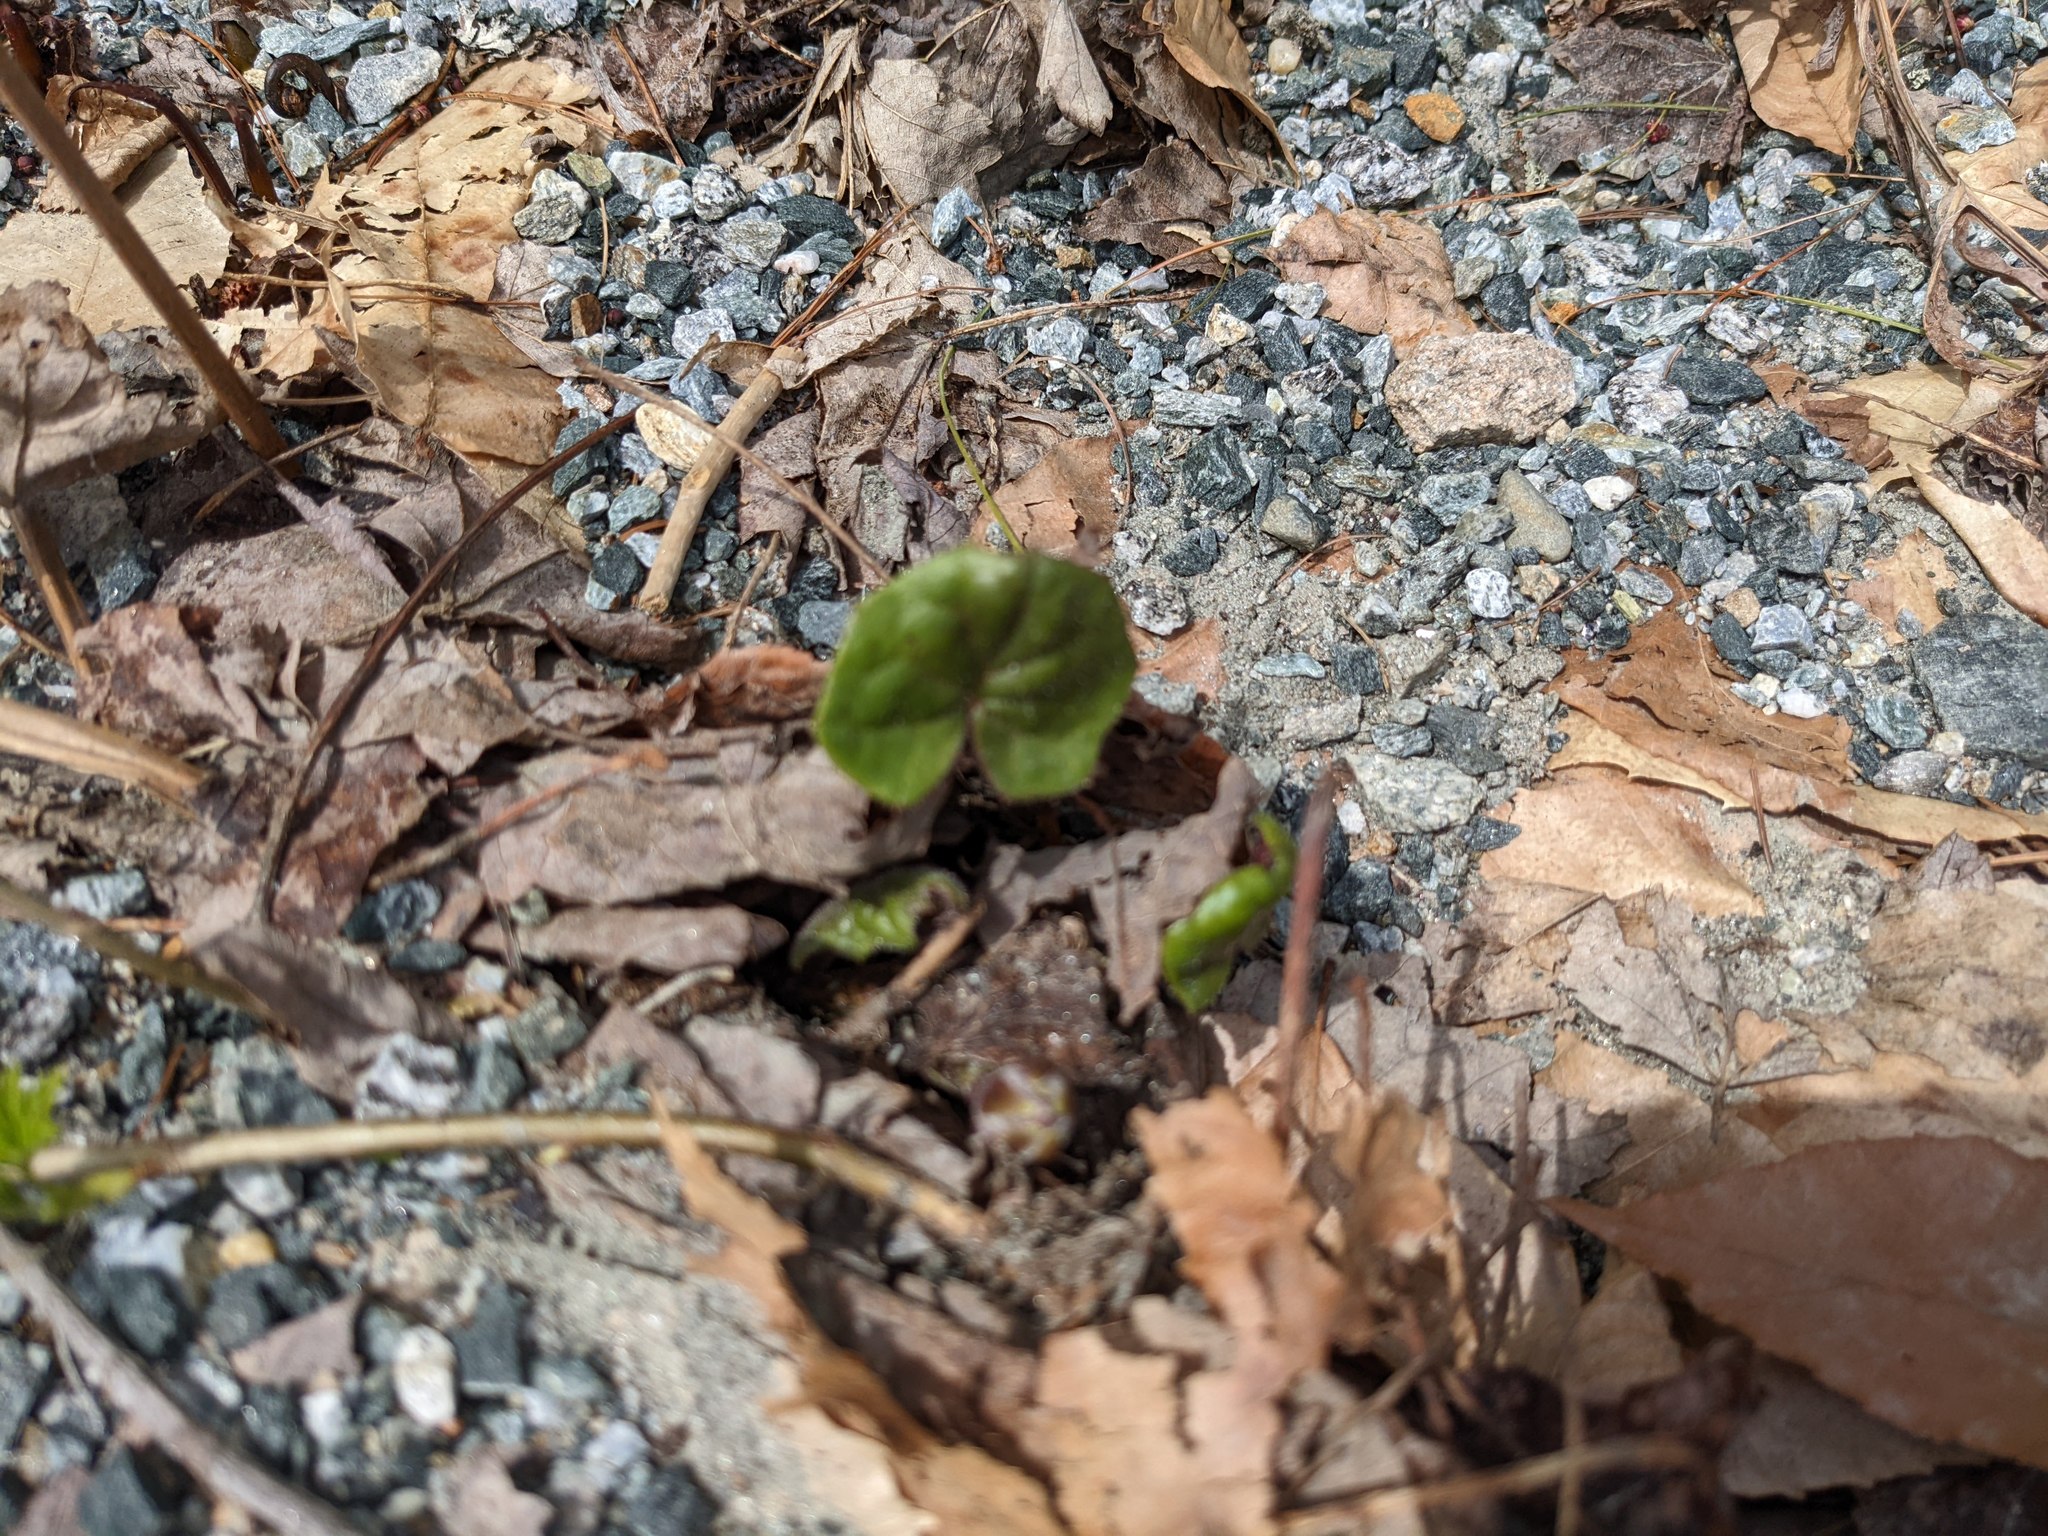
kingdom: Plantae
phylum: Tracheophyta
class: Magnoliopsida
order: Asterales
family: Asteraceae
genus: Tussilago
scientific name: Tussilago farfara
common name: Coltsfoot
